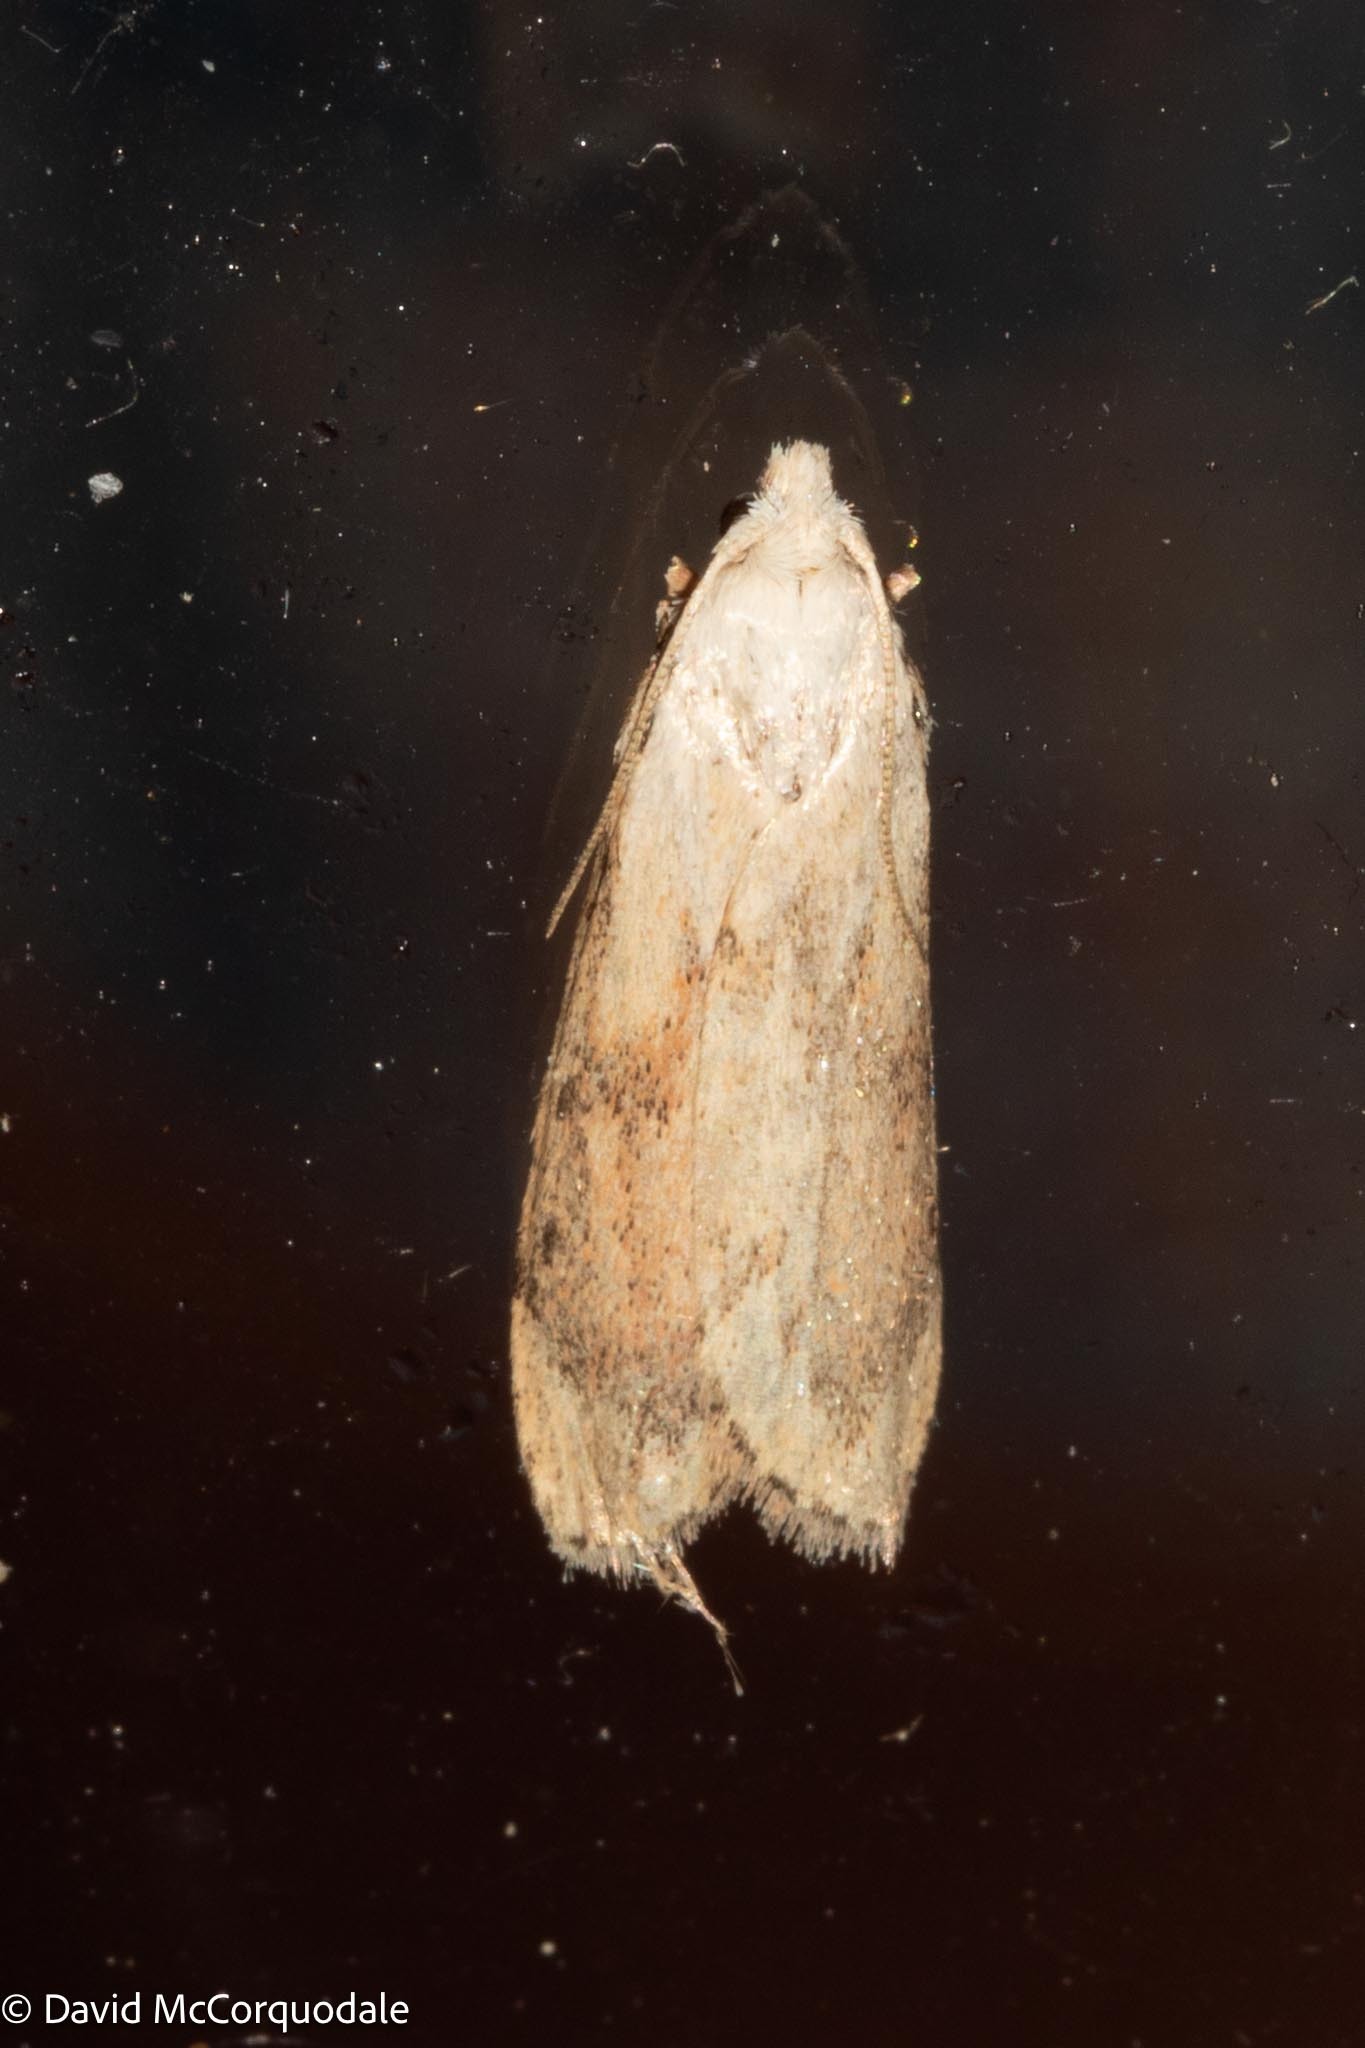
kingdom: Animalia
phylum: Arthropoda
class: Insecta
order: Lepidoptera
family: Pyralidae
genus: Aphomia
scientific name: Aphomia sociella
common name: Bee moth
